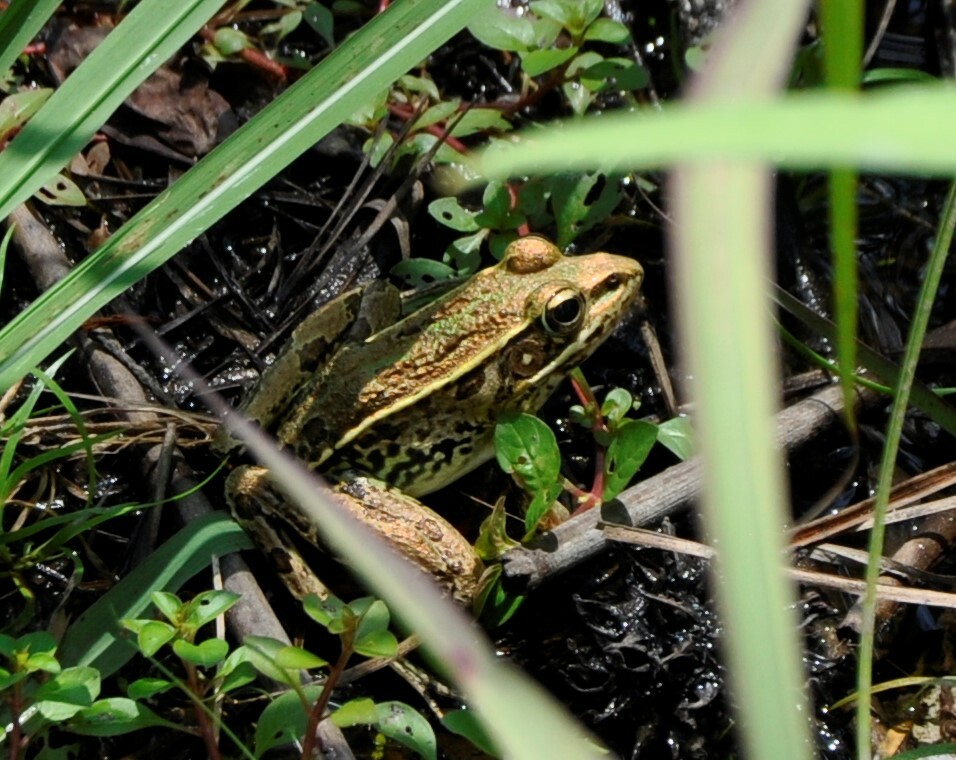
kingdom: Animalia
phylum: Chordata
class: Amphibia
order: Anura
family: Ranidae
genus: Lithobates
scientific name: Lithobates sphenocephalus
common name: Southern leopard frog
